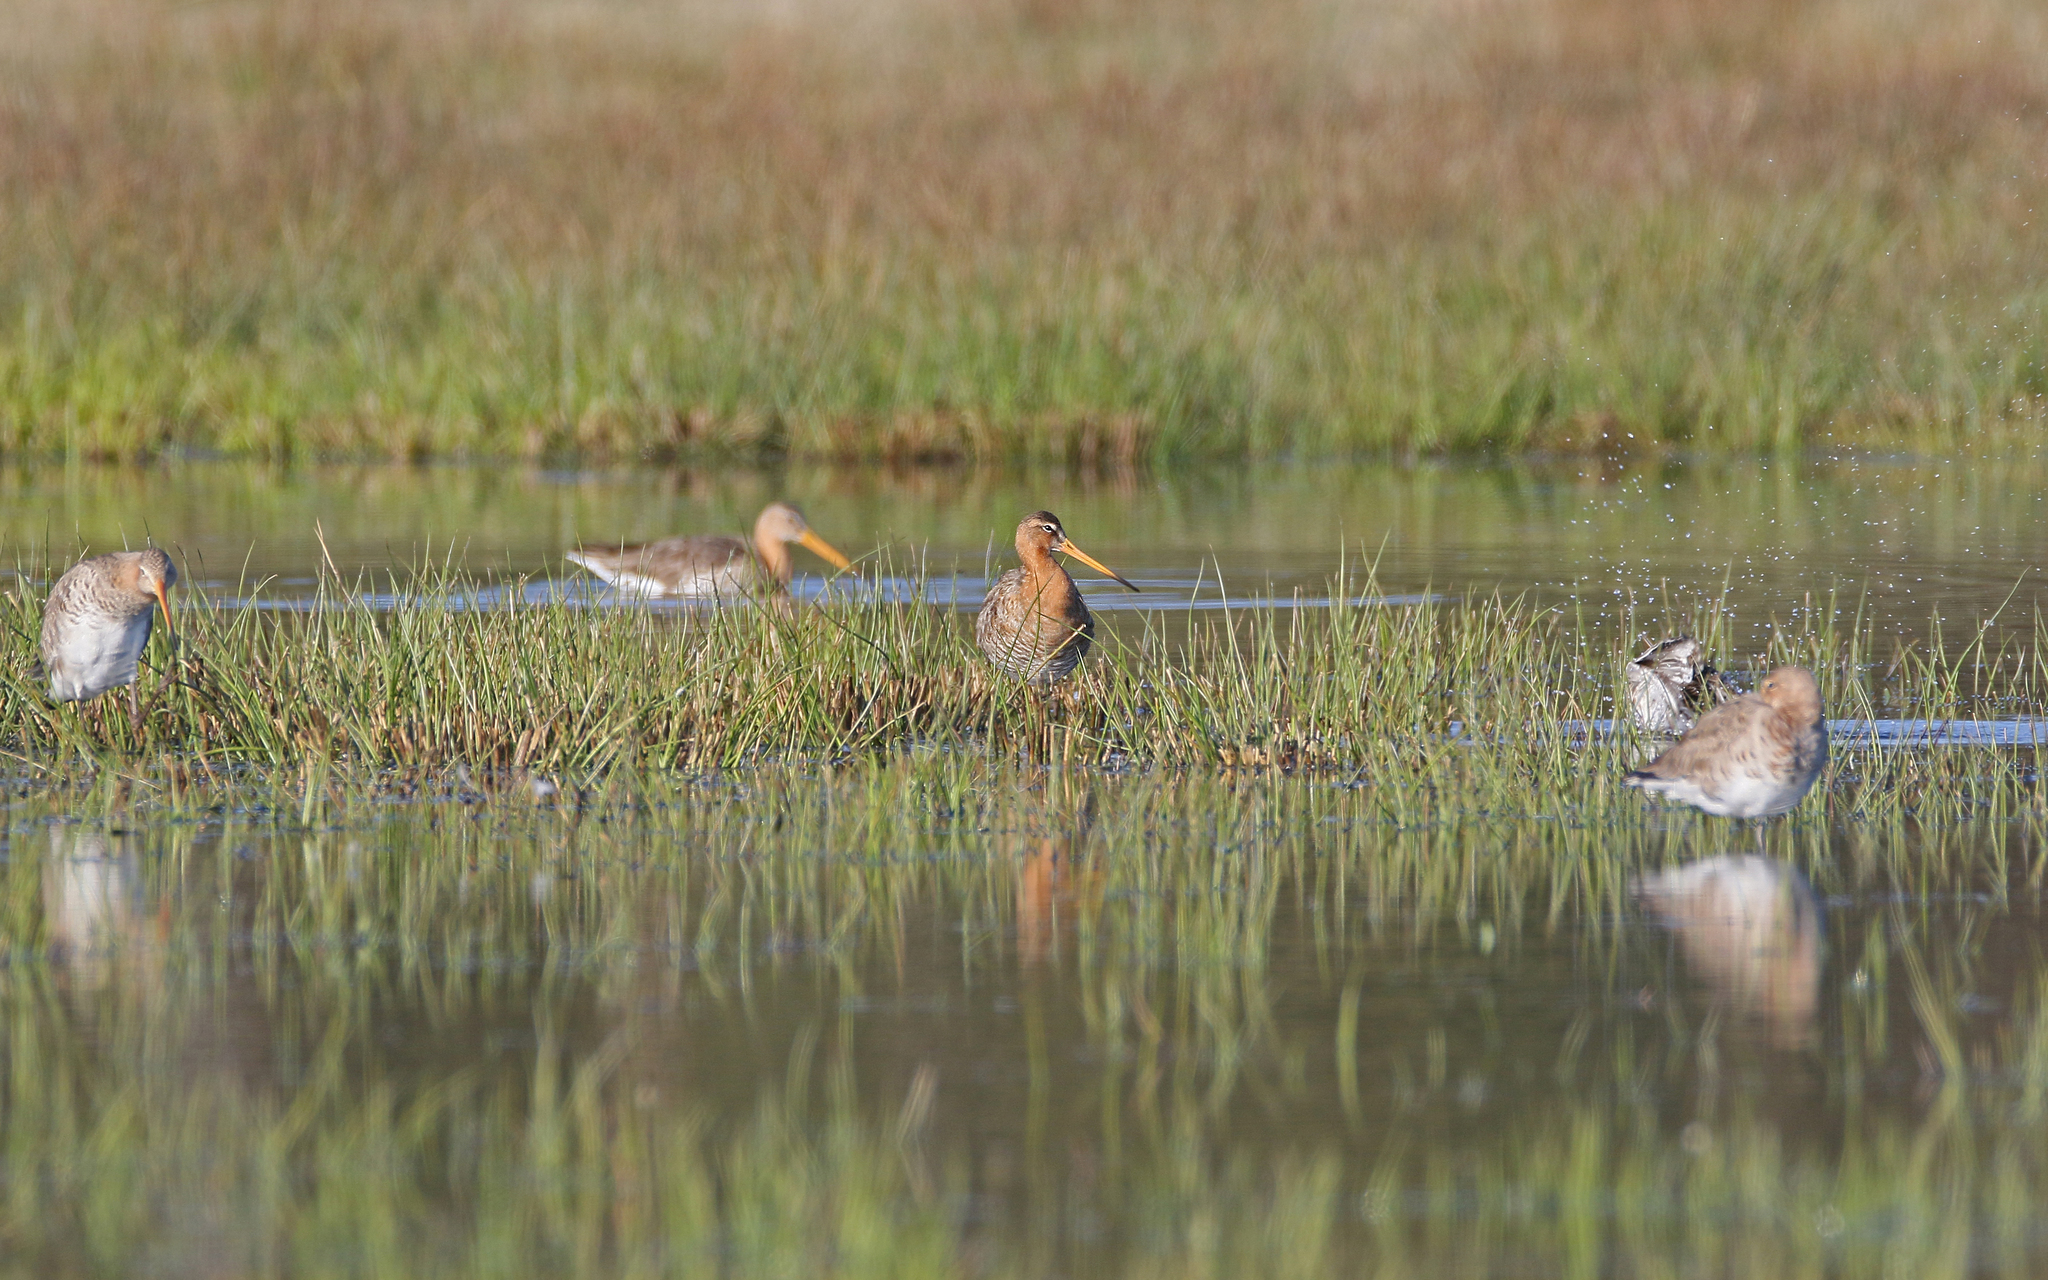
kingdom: Animalia
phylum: Chordata
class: Aves
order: Charadriiformes
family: Scolopacidae
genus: Limosa
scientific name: Limosa limosa
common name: Black-tailed godwit
